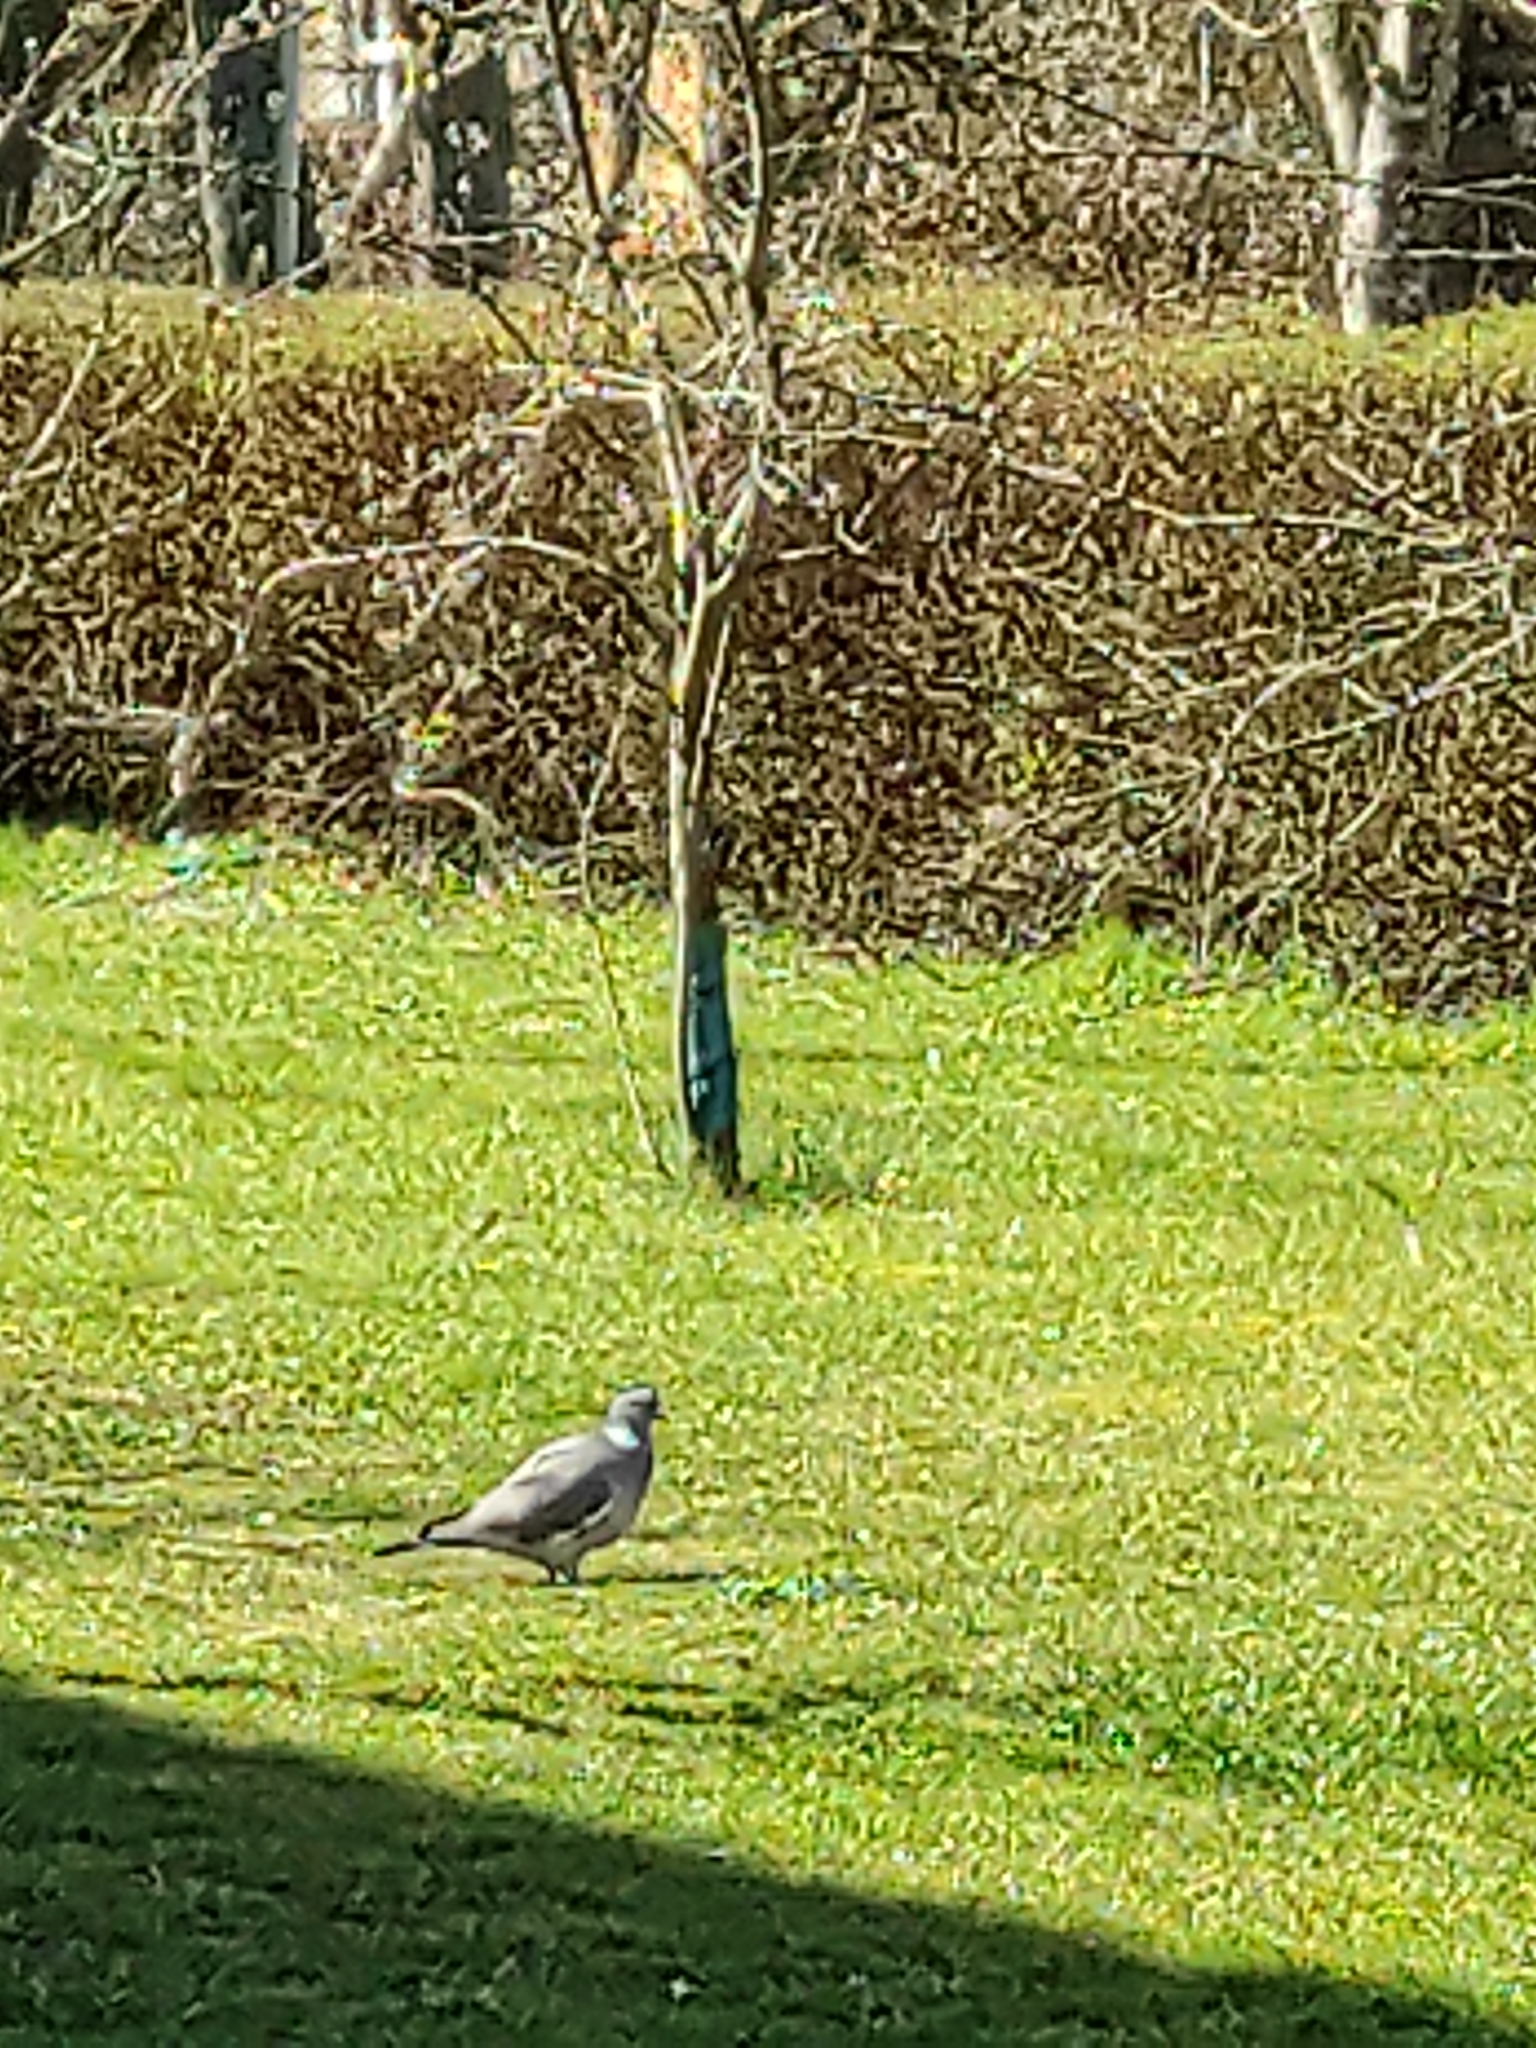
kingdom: Animalia
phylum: Chordata
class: Aves
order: Columbiformes
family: Columbidae
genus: Columba
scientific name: Columba palumbus
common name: Common wood pigeon
